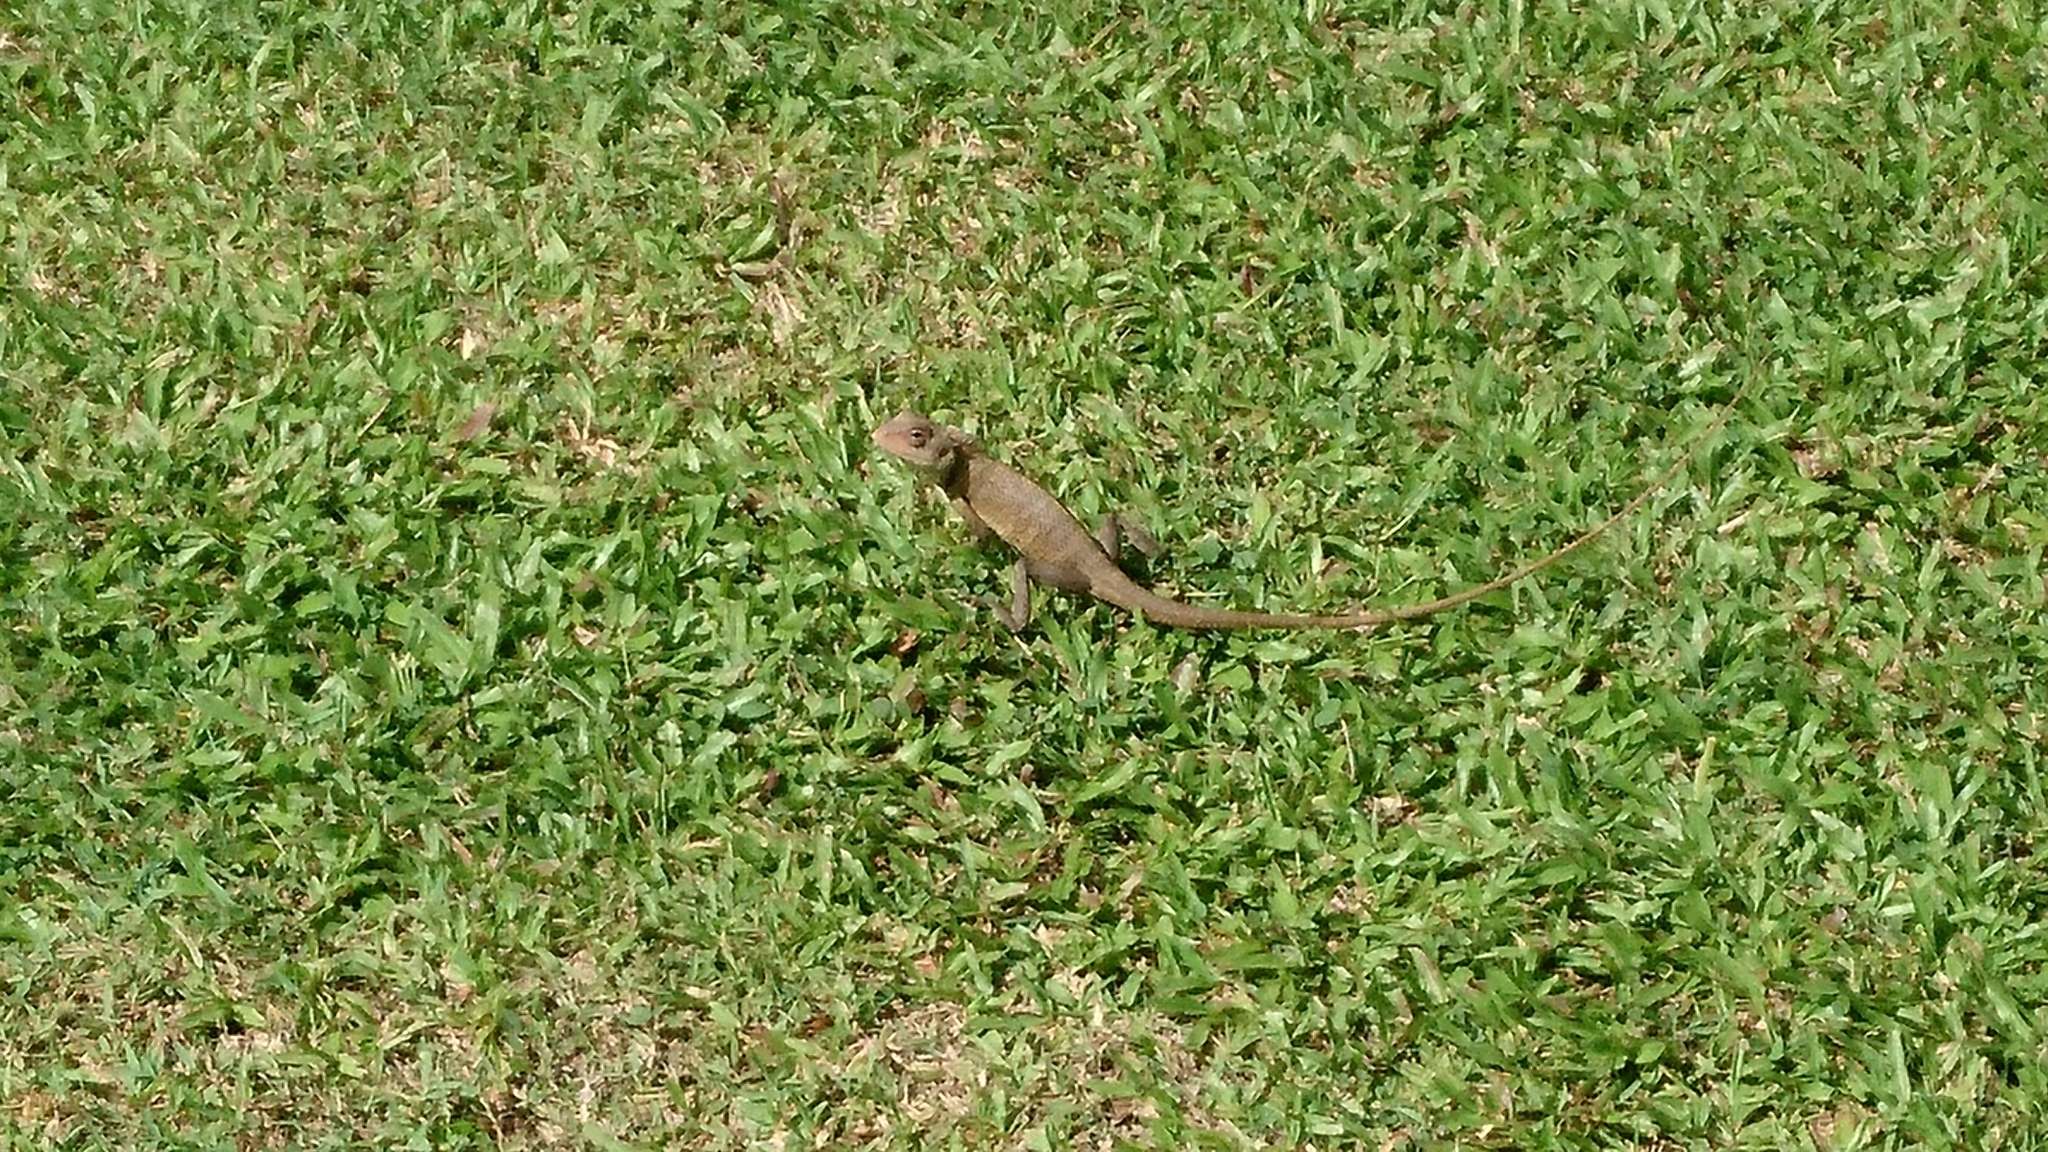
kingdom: Animalia
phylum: Chordata
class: Squamata
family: Agamidae
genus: Calotes
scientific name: Calotes versicolor
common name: Oriental garden lizard
